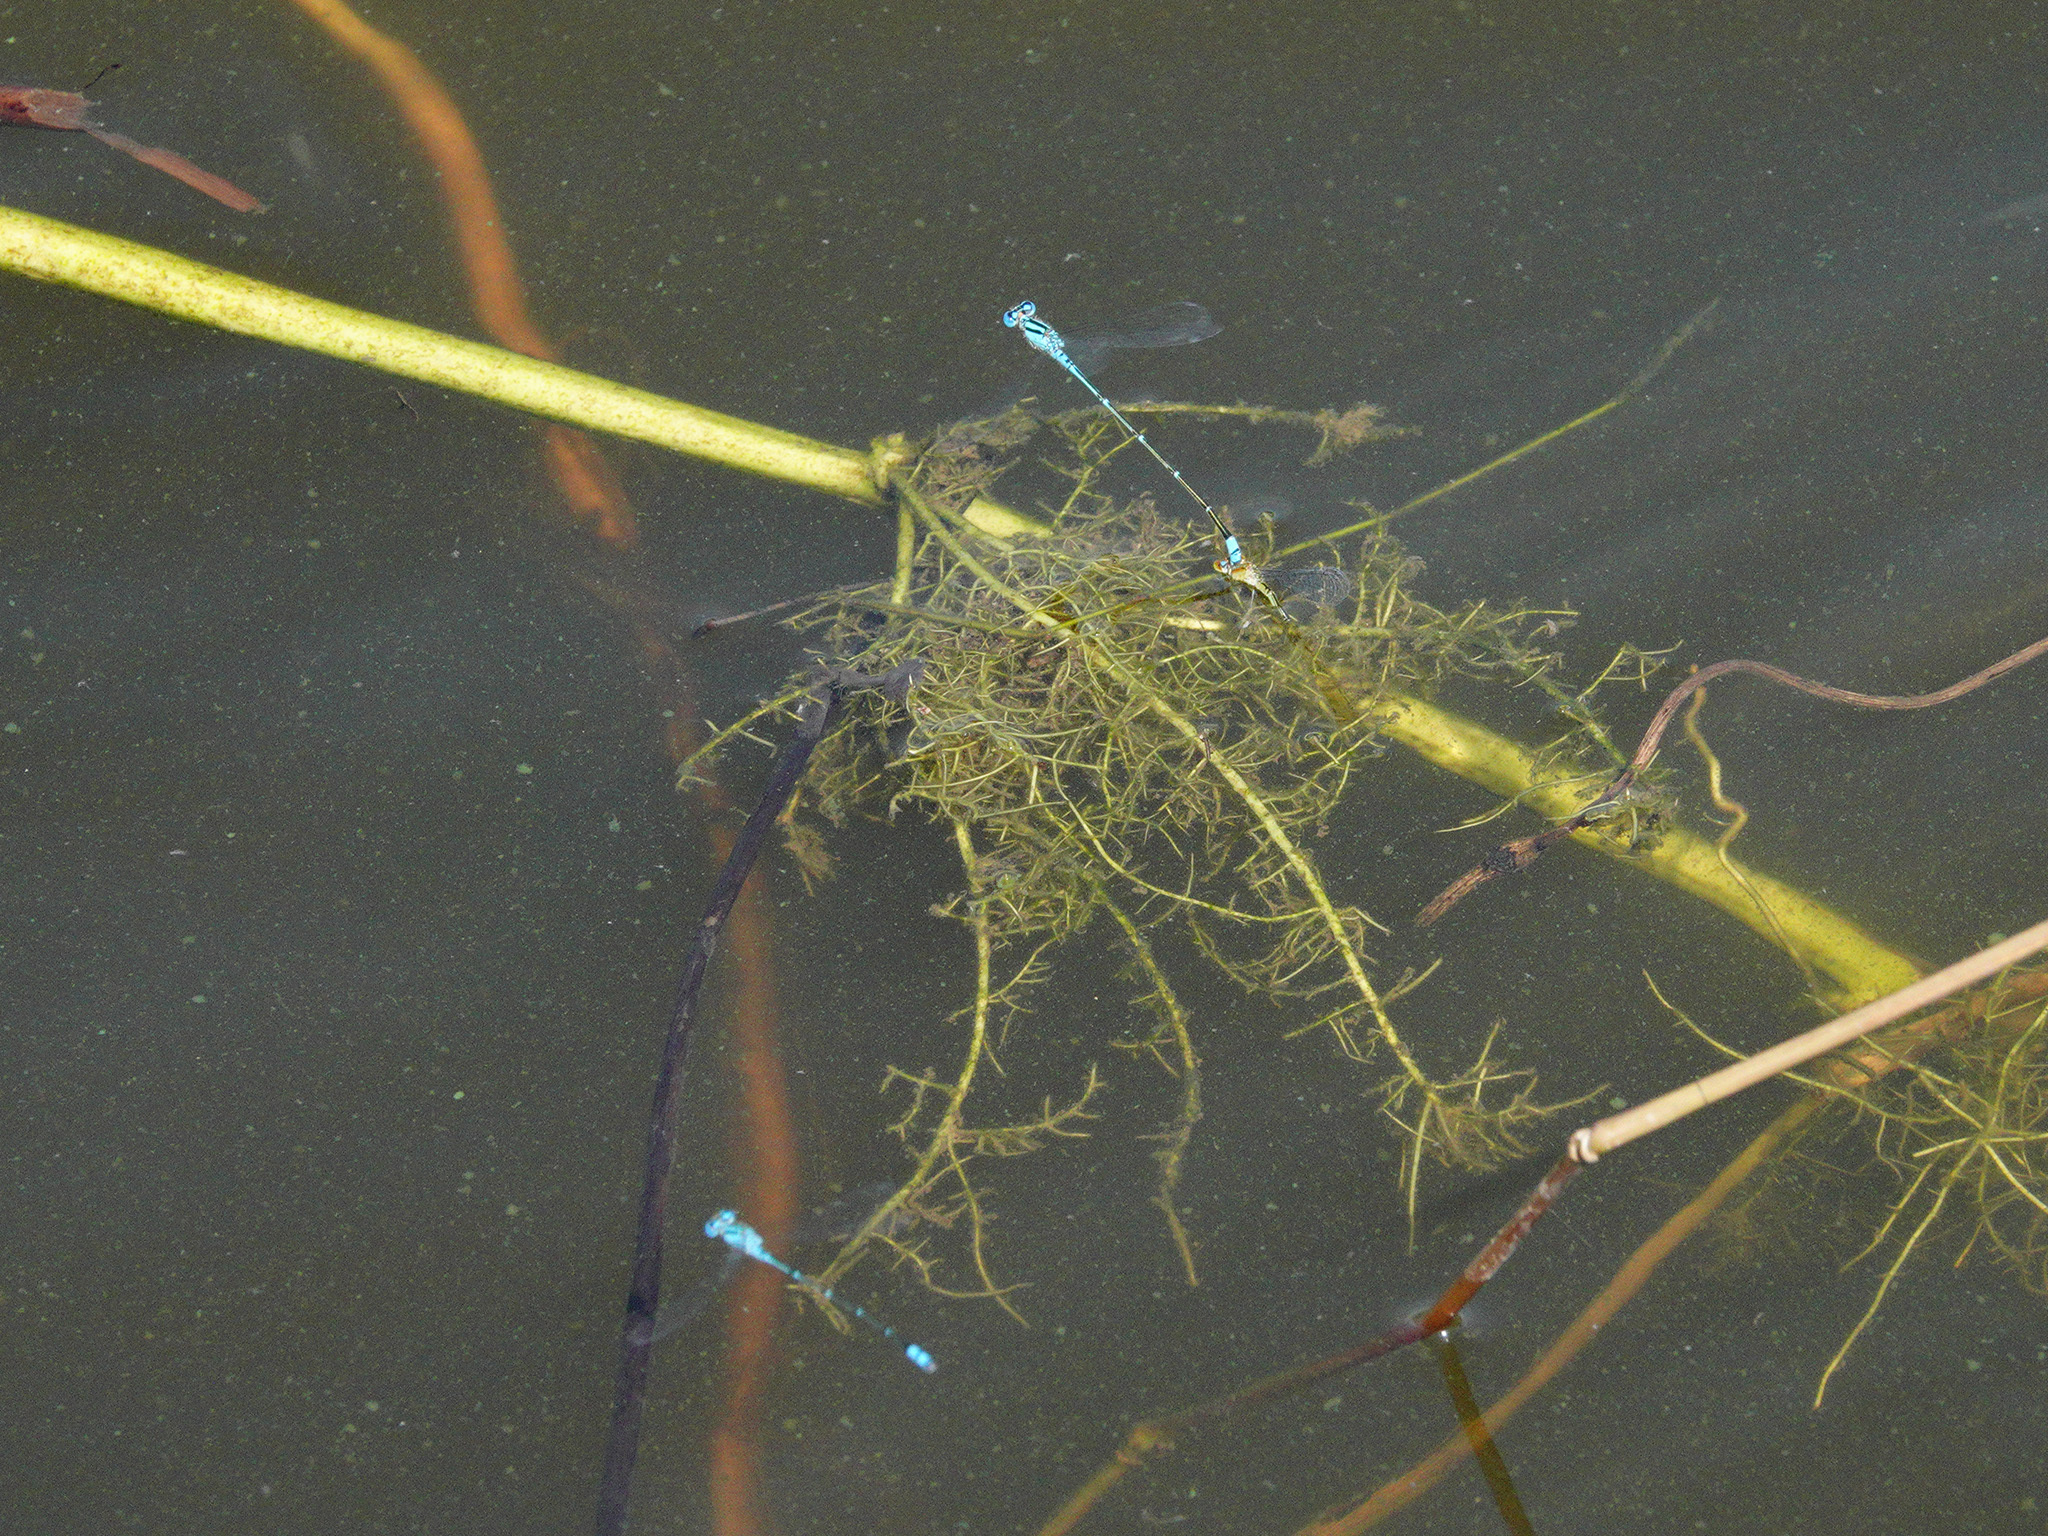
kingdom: Animalia
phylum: Arthropoda
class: Insecta
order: Odonata
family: Coenagrionidae
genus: Pseudagrion
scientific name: Pseudagrion microcephalum
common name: Blue riverdamsel
